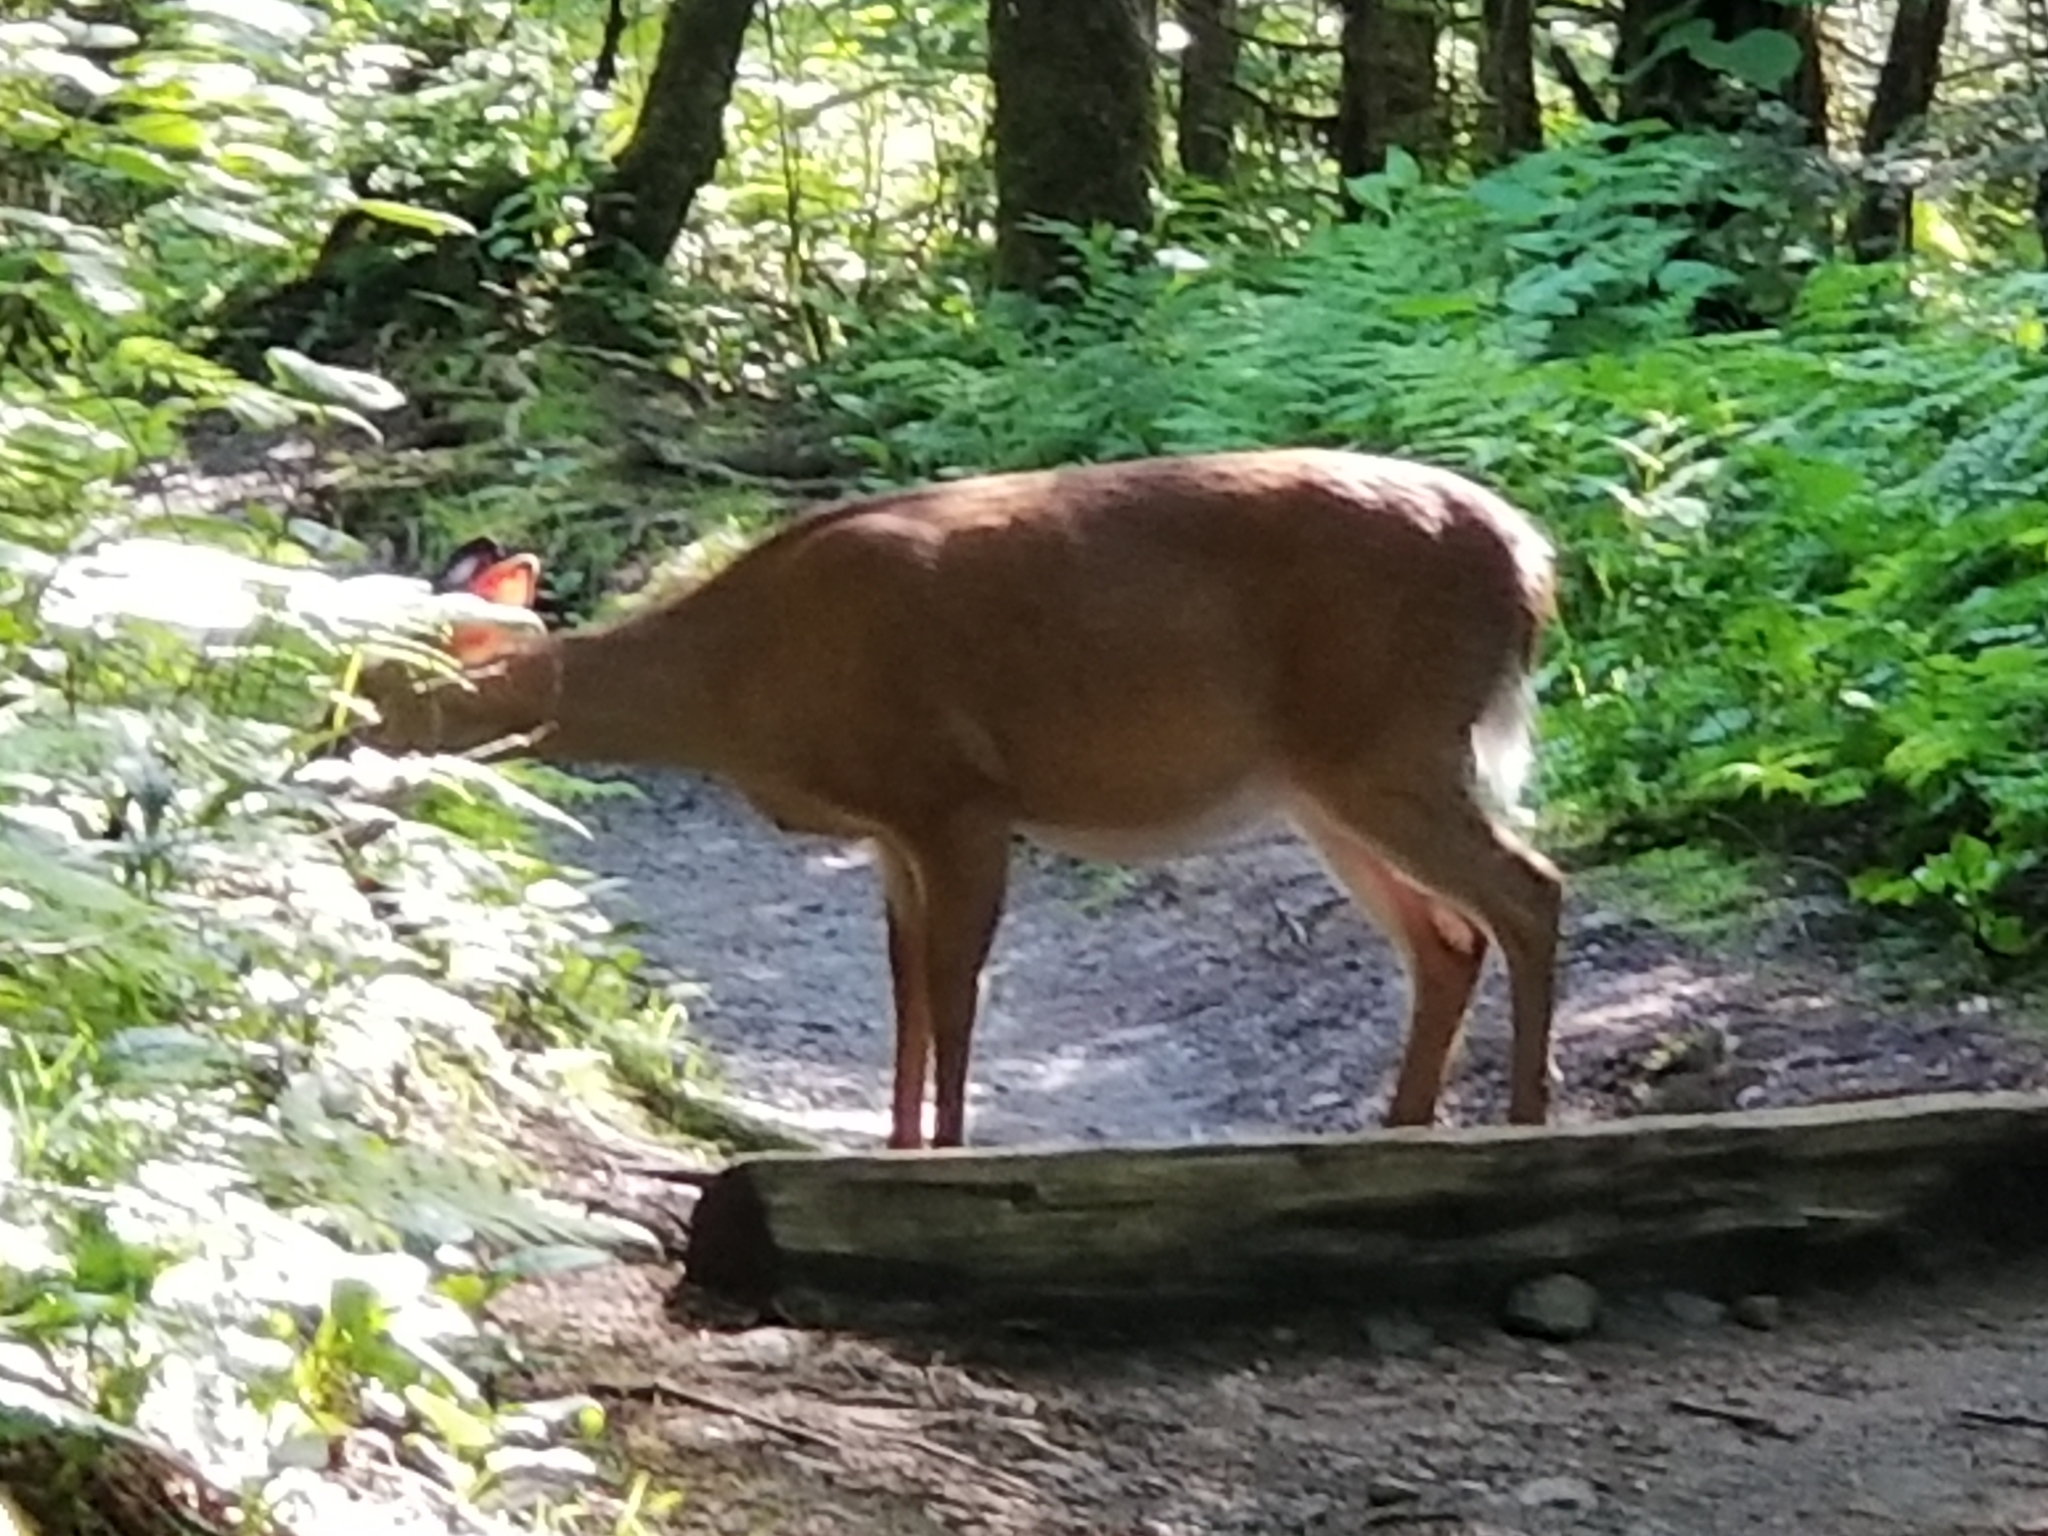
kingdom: Animalia
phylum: Chordata
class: Mammalia
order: Artiodactyla
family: Cervidae
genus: Odocoileus
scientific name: Odocoileus virginianus
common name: White-tailed deer
